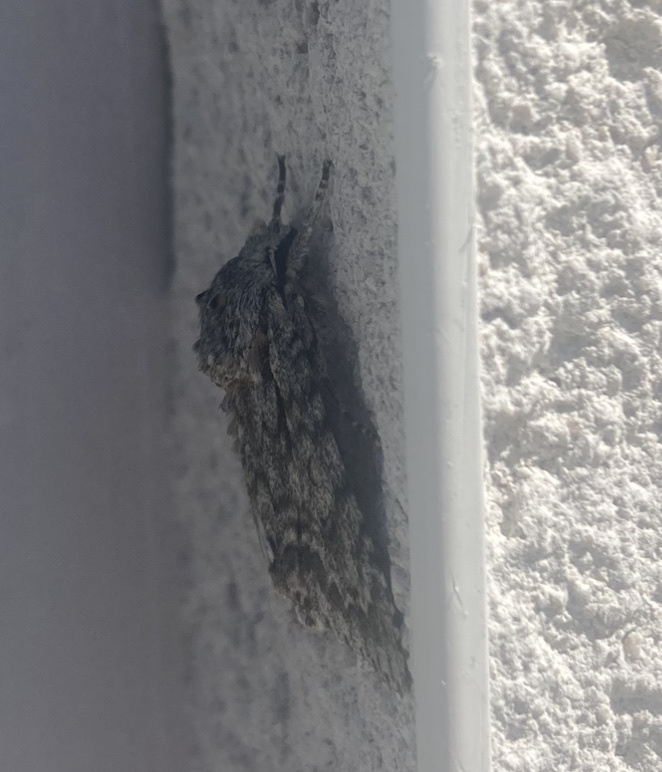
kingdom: Animalia
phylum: Arthropoda
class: Insecta
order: Lepidoptera
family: Noctuidae
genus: Acronicta
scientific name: Acronicta aceris
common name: Sycamore
